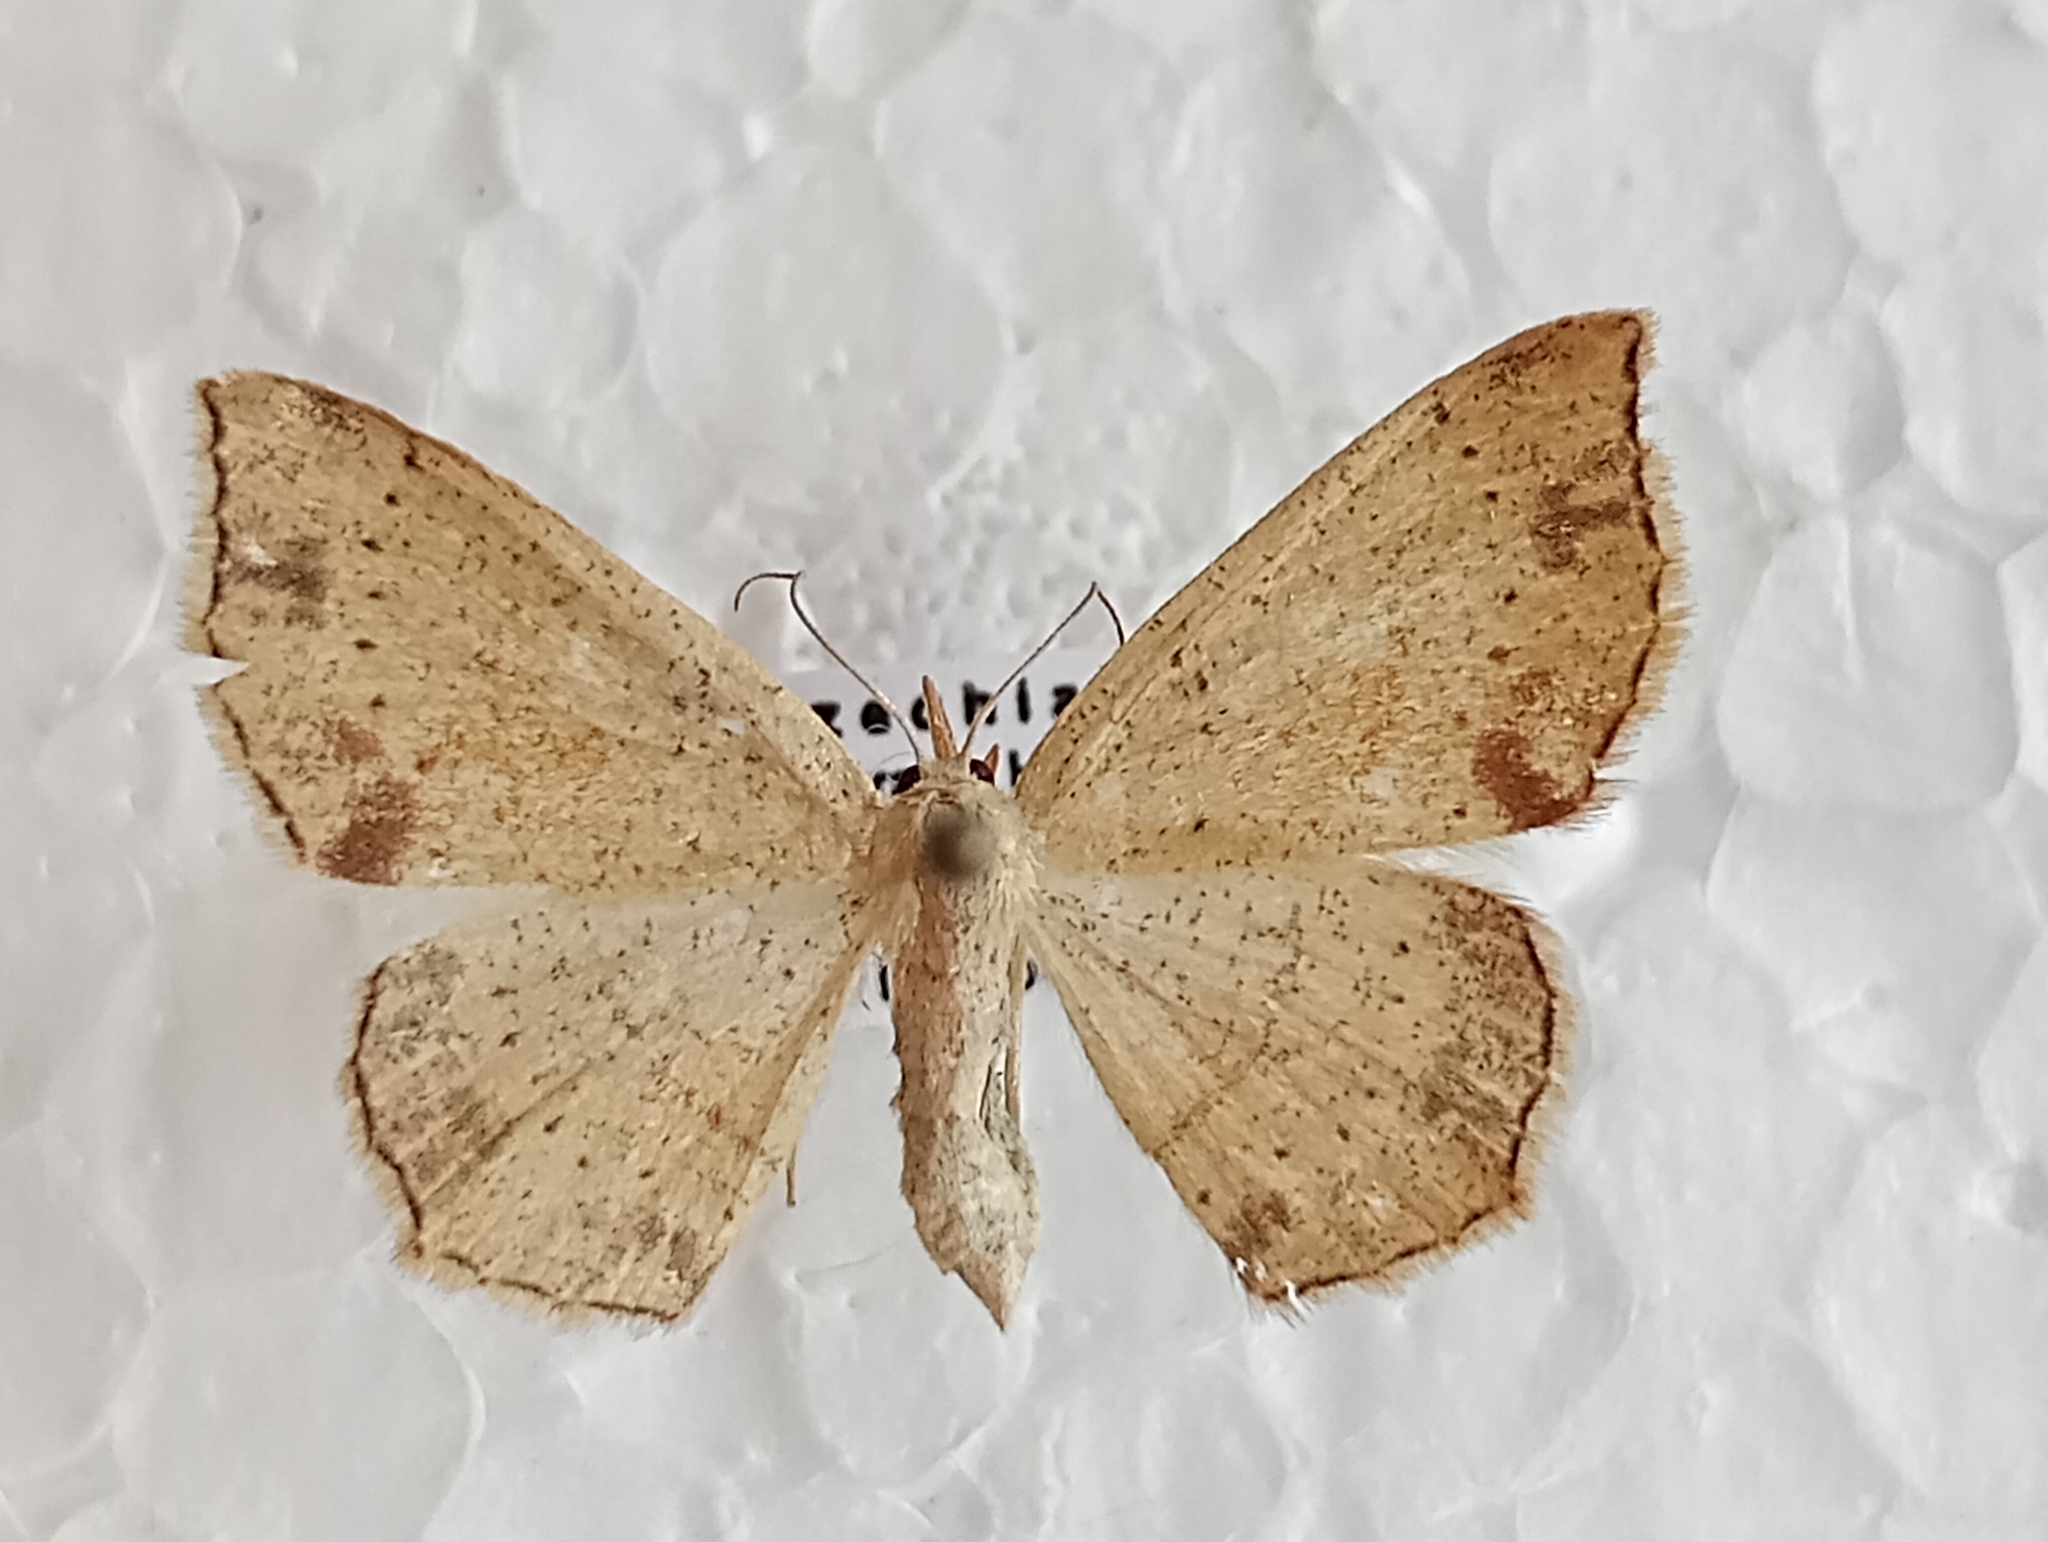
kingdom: Animalia
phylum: Arthropoda
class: Insecta
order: Lepidoptera
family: Geometridae
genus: Cyclophora
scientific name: Cyclophora punctaria
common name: Maiden's blush
